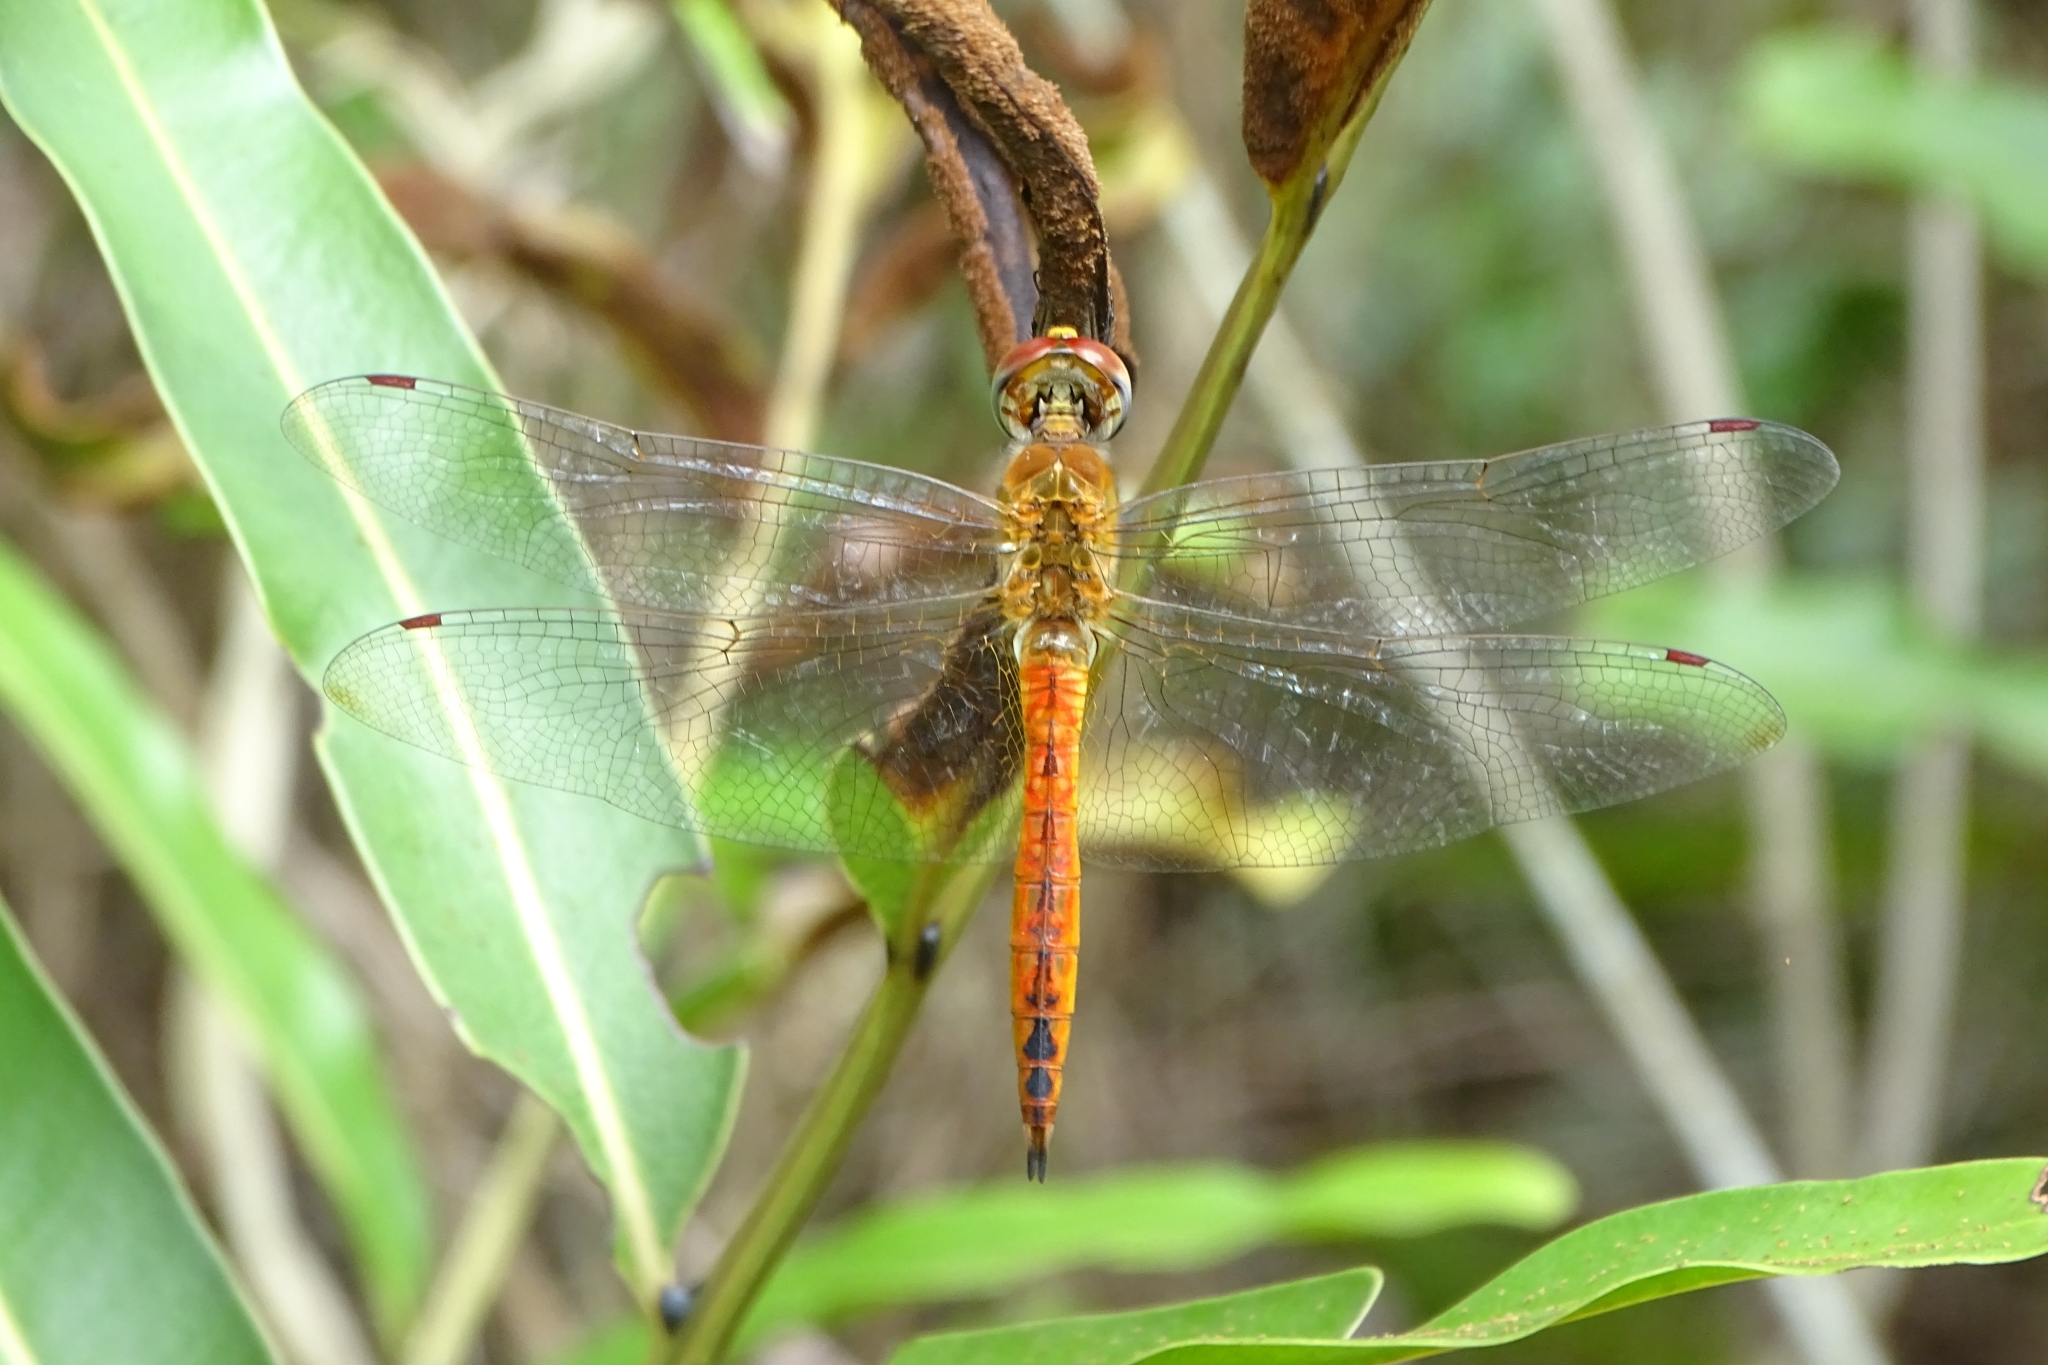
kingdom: Animalia
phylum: Arthropoda
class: Insecta
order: Odonata
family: Libellulidae
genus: Pantala
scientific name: Pantala flavescens
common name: Wandering glider
